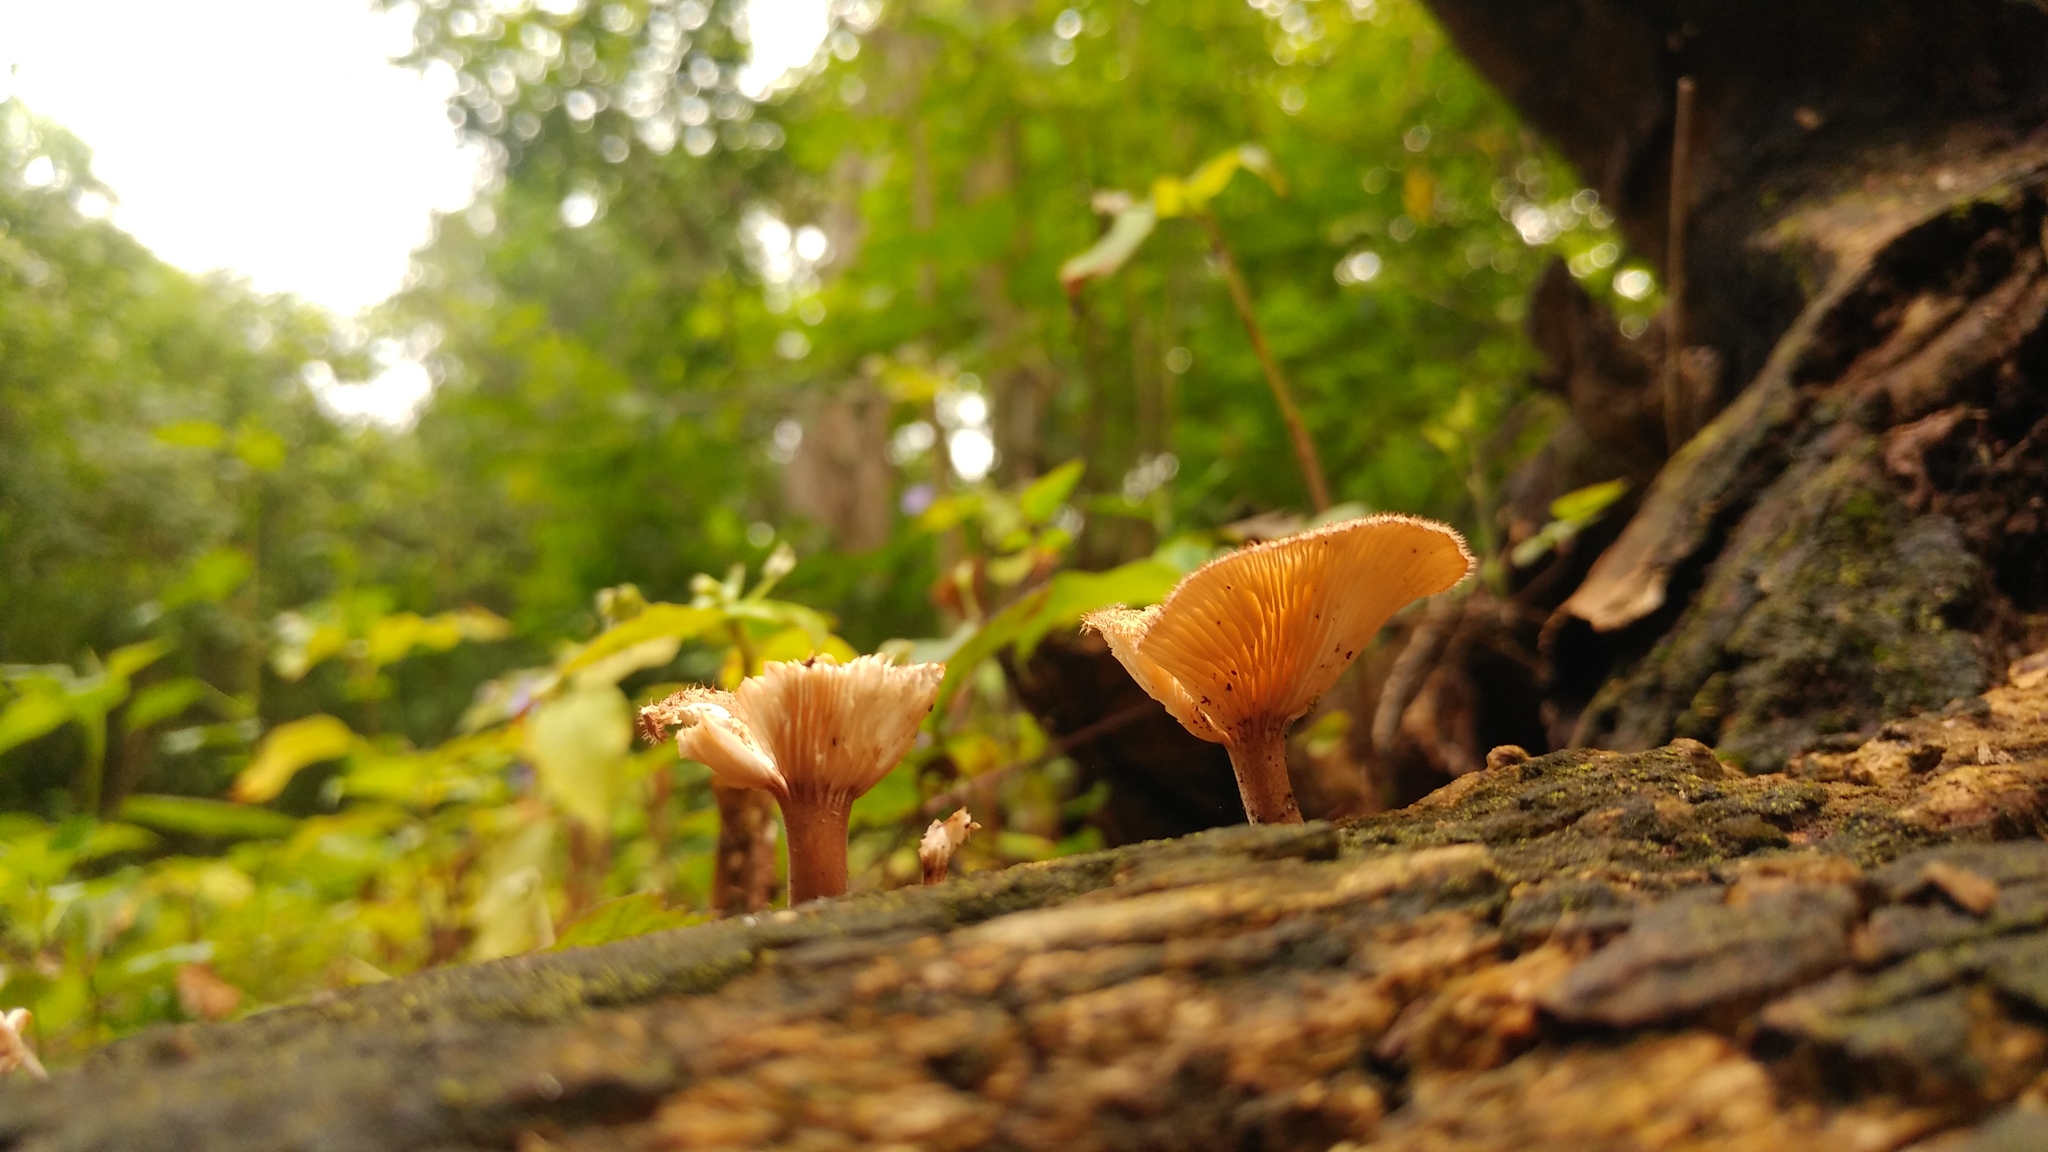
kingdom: Fungi
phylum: Basidiomycota
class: Agaricomycetes
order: Polyporales
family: Panaceae
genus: Panus
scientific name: Panus neostrigosus
